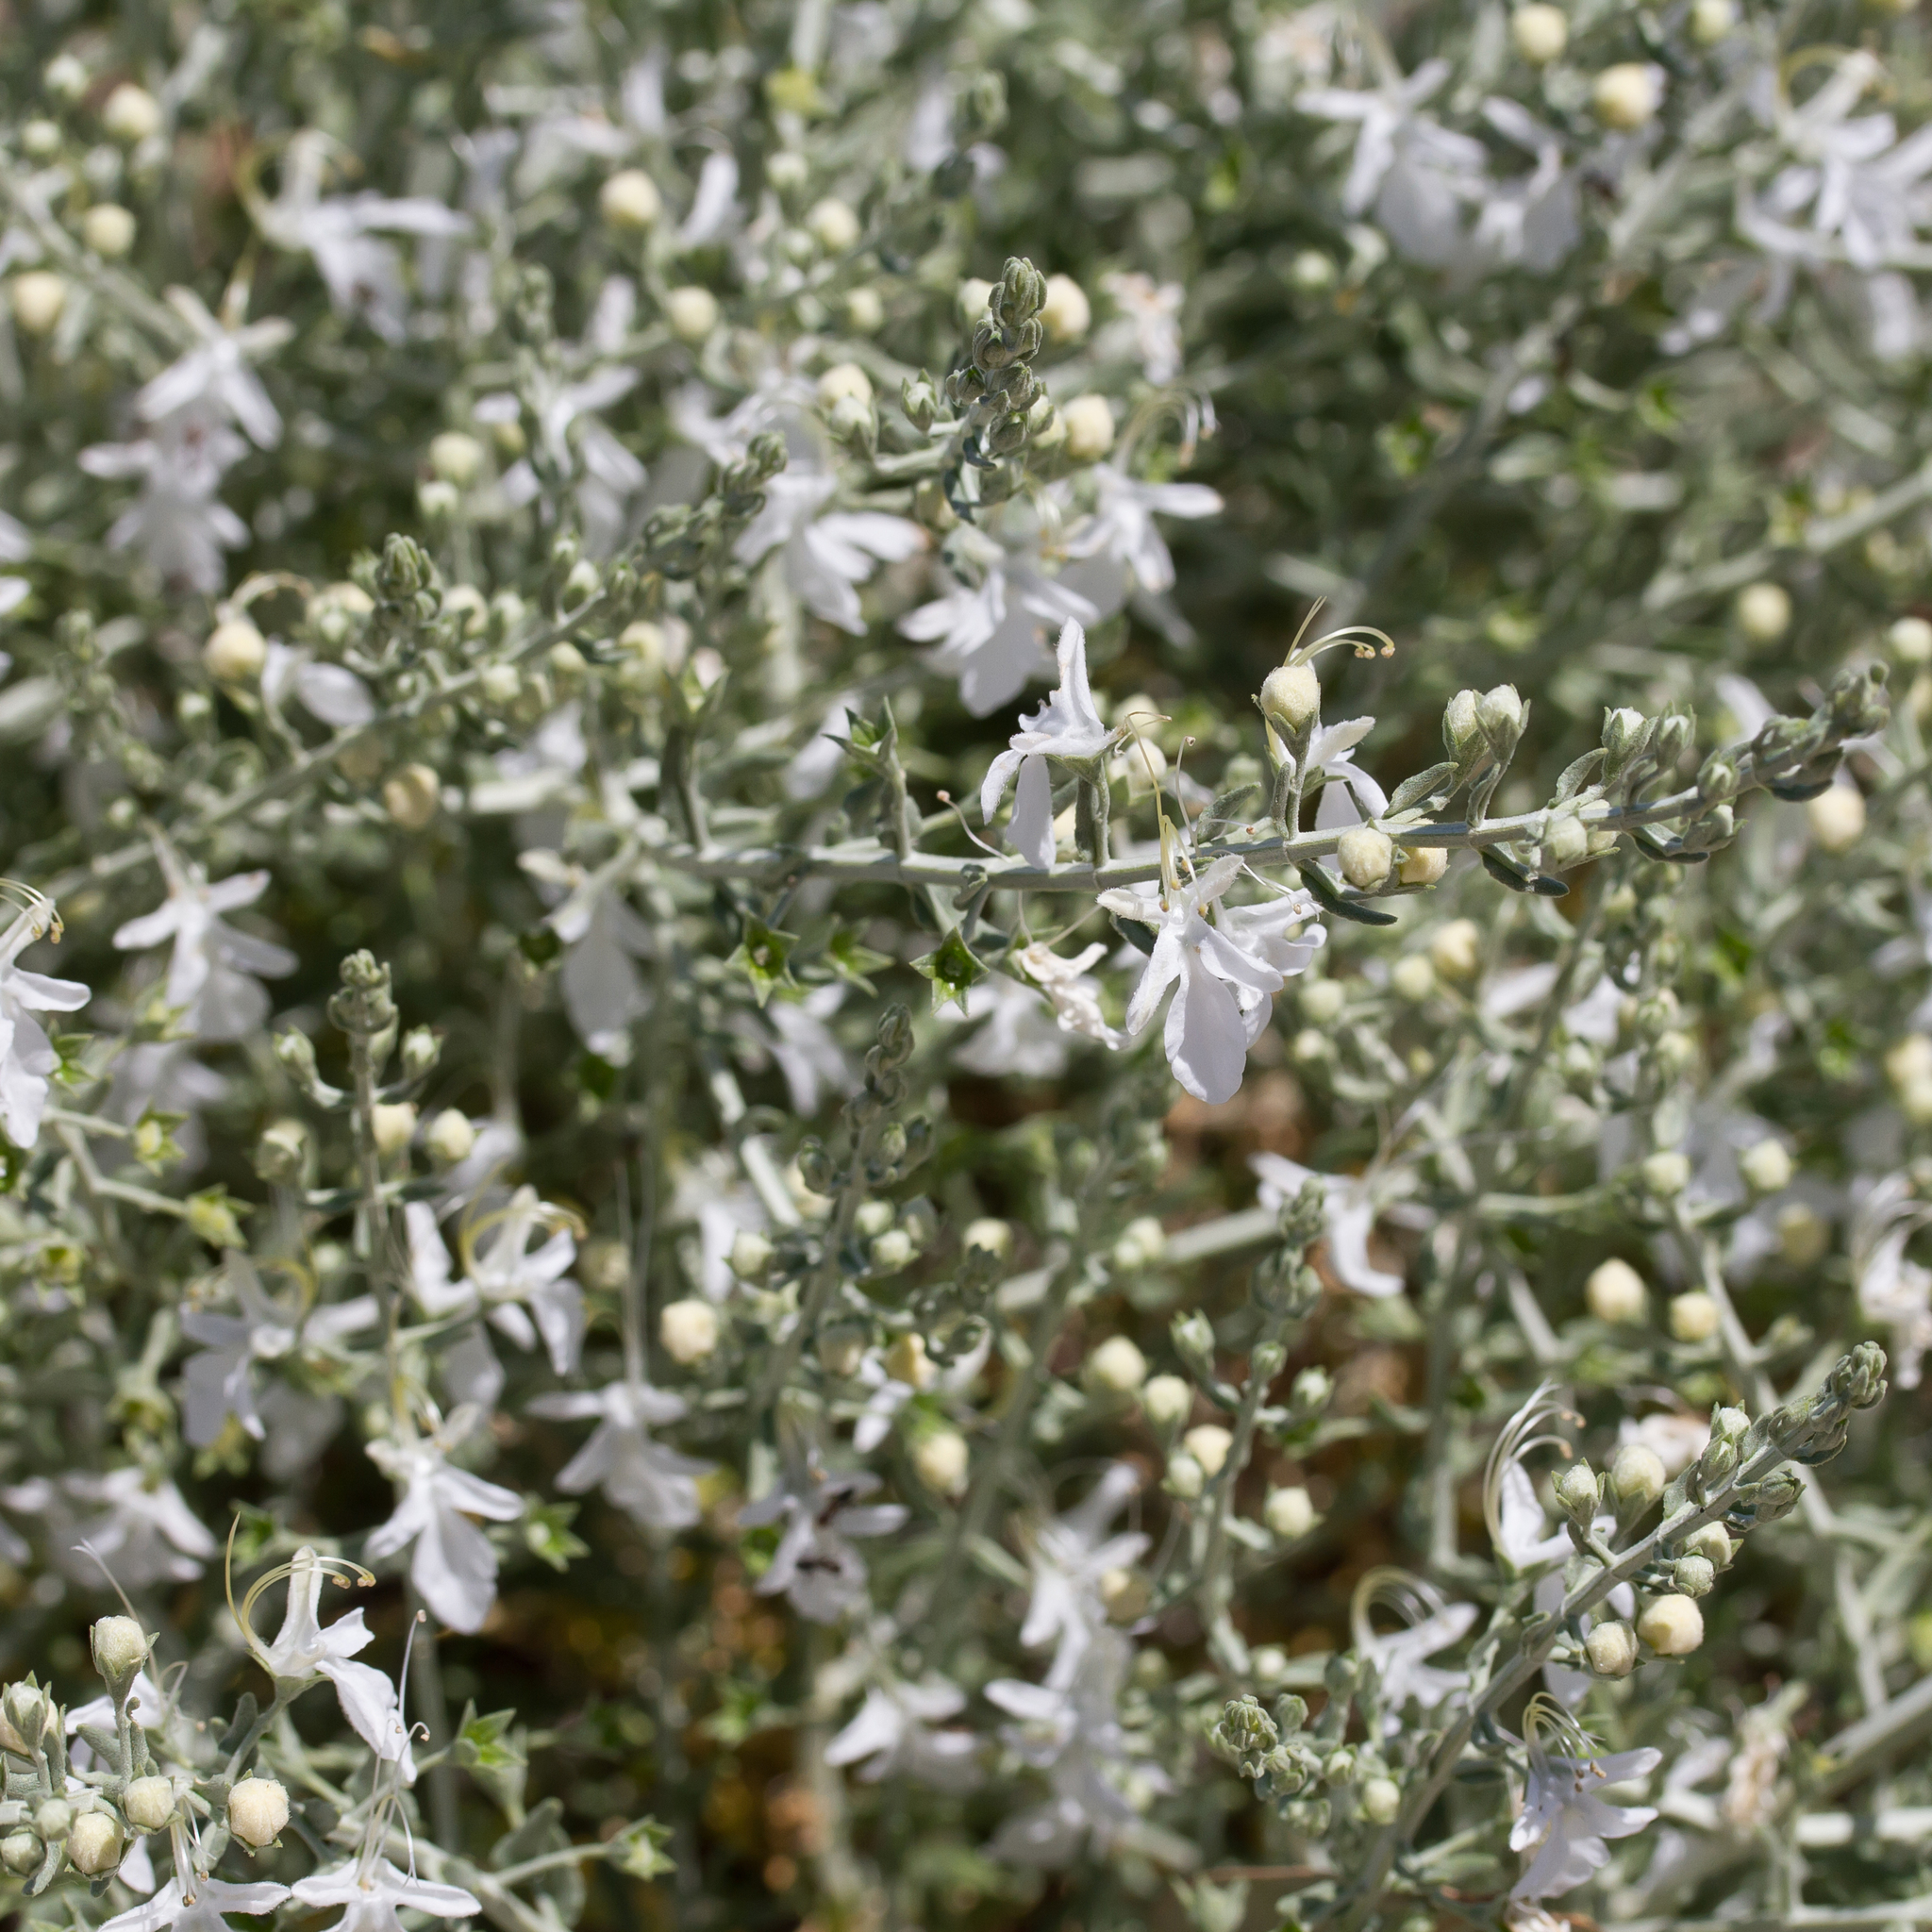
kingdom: Plantae
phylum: Tracheophyta
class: Magnoliopsida
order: Lamiales
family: Lamiaceae
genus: Teucrium
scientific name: Teucrium racemosum
